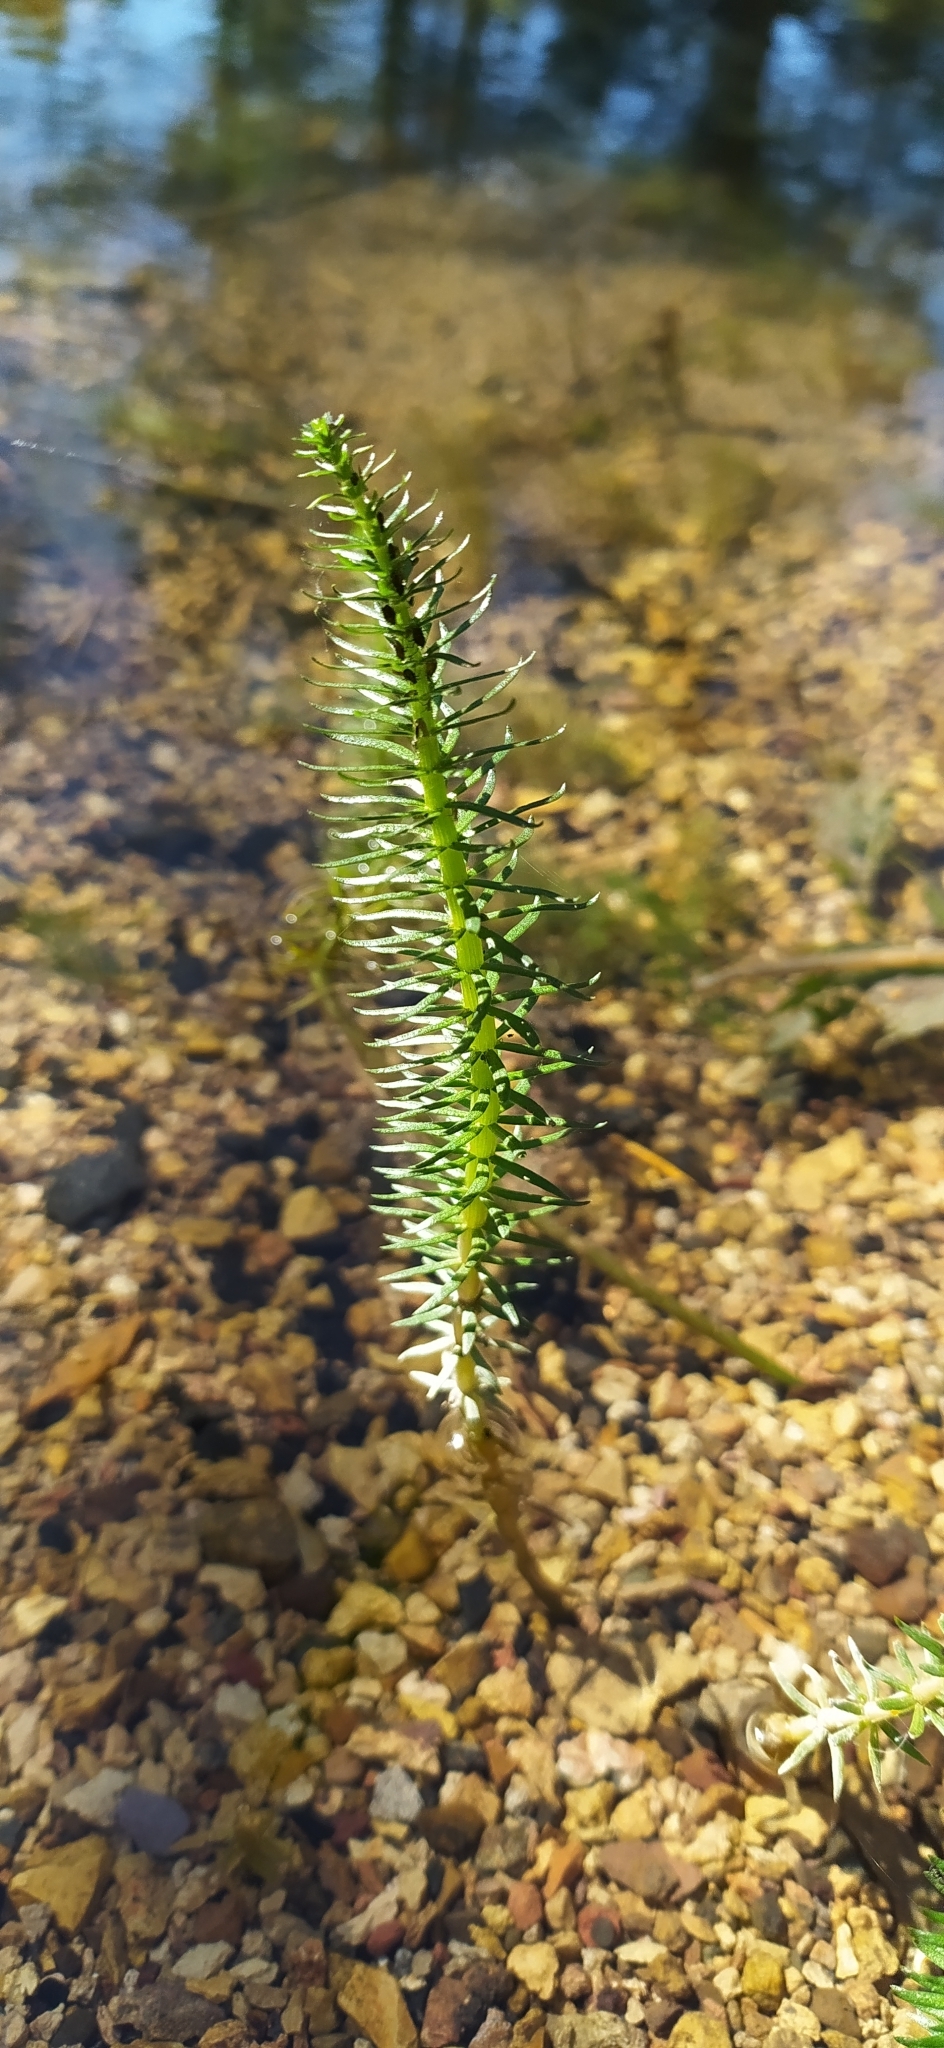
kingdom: Plantae
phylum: Tracheophyta
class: Magnoliopsida
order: Lamiales
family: Plantaginaceae
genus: Hippuris
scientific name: Hippuris vulgaris
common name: Mare's-tail
